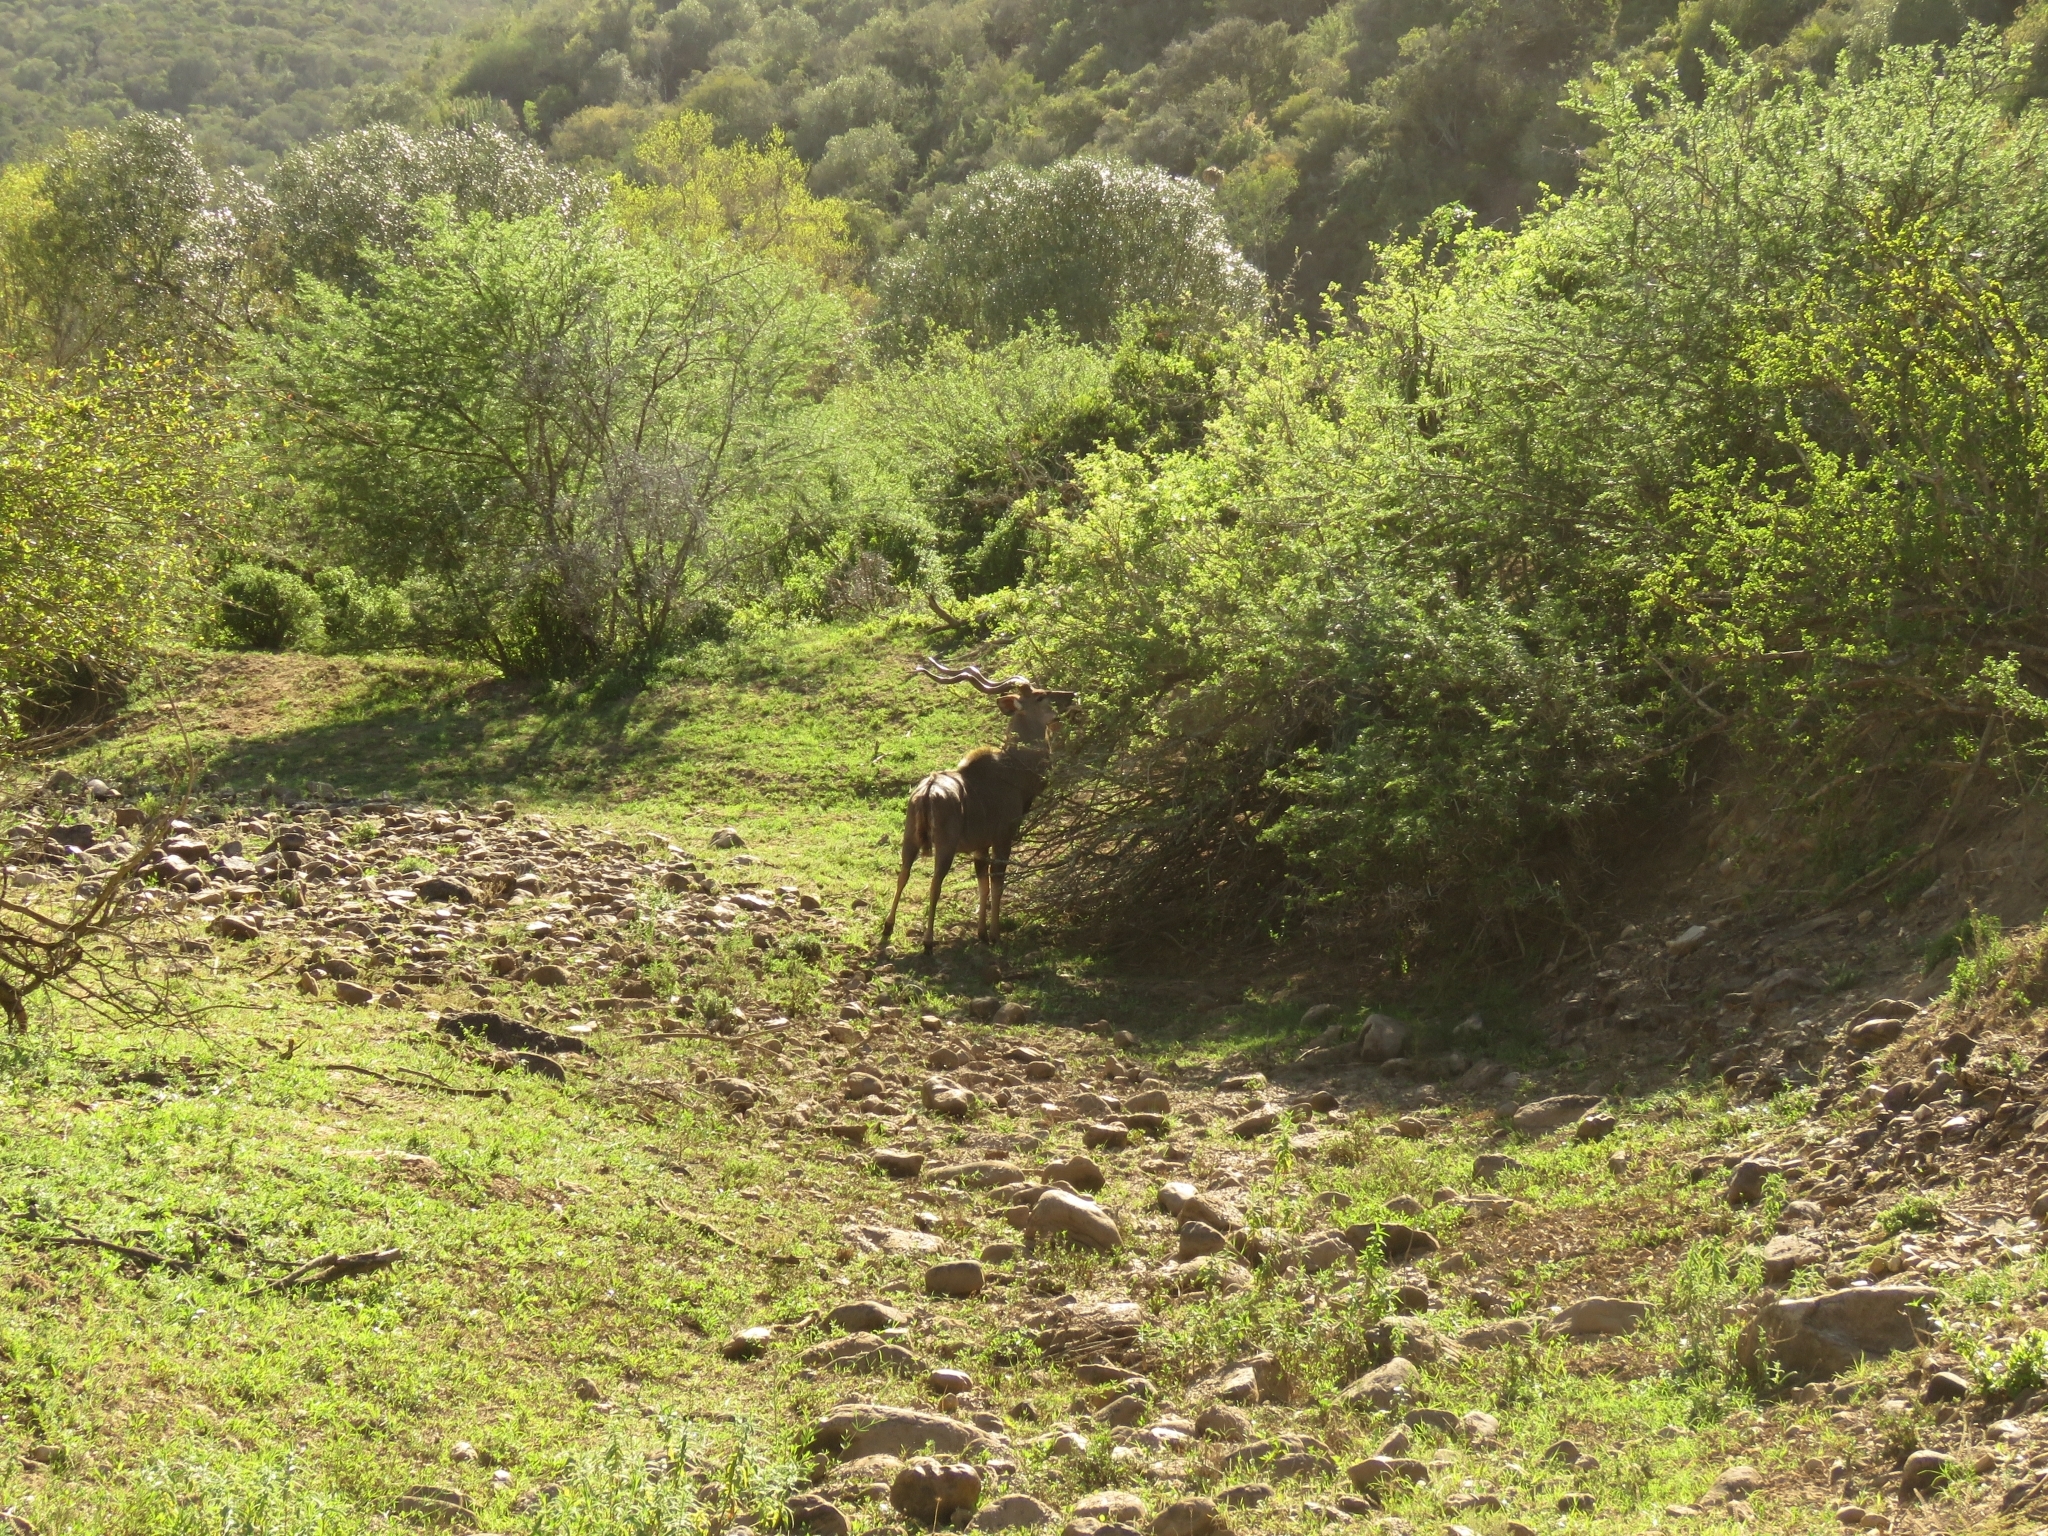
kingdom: Animalia
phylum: Chordata
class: Mammalia
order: Artiodactyla
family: Bovidae
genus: Tragelaphus
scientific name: Tragelaphus strepsiceros
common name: Greater kudu
